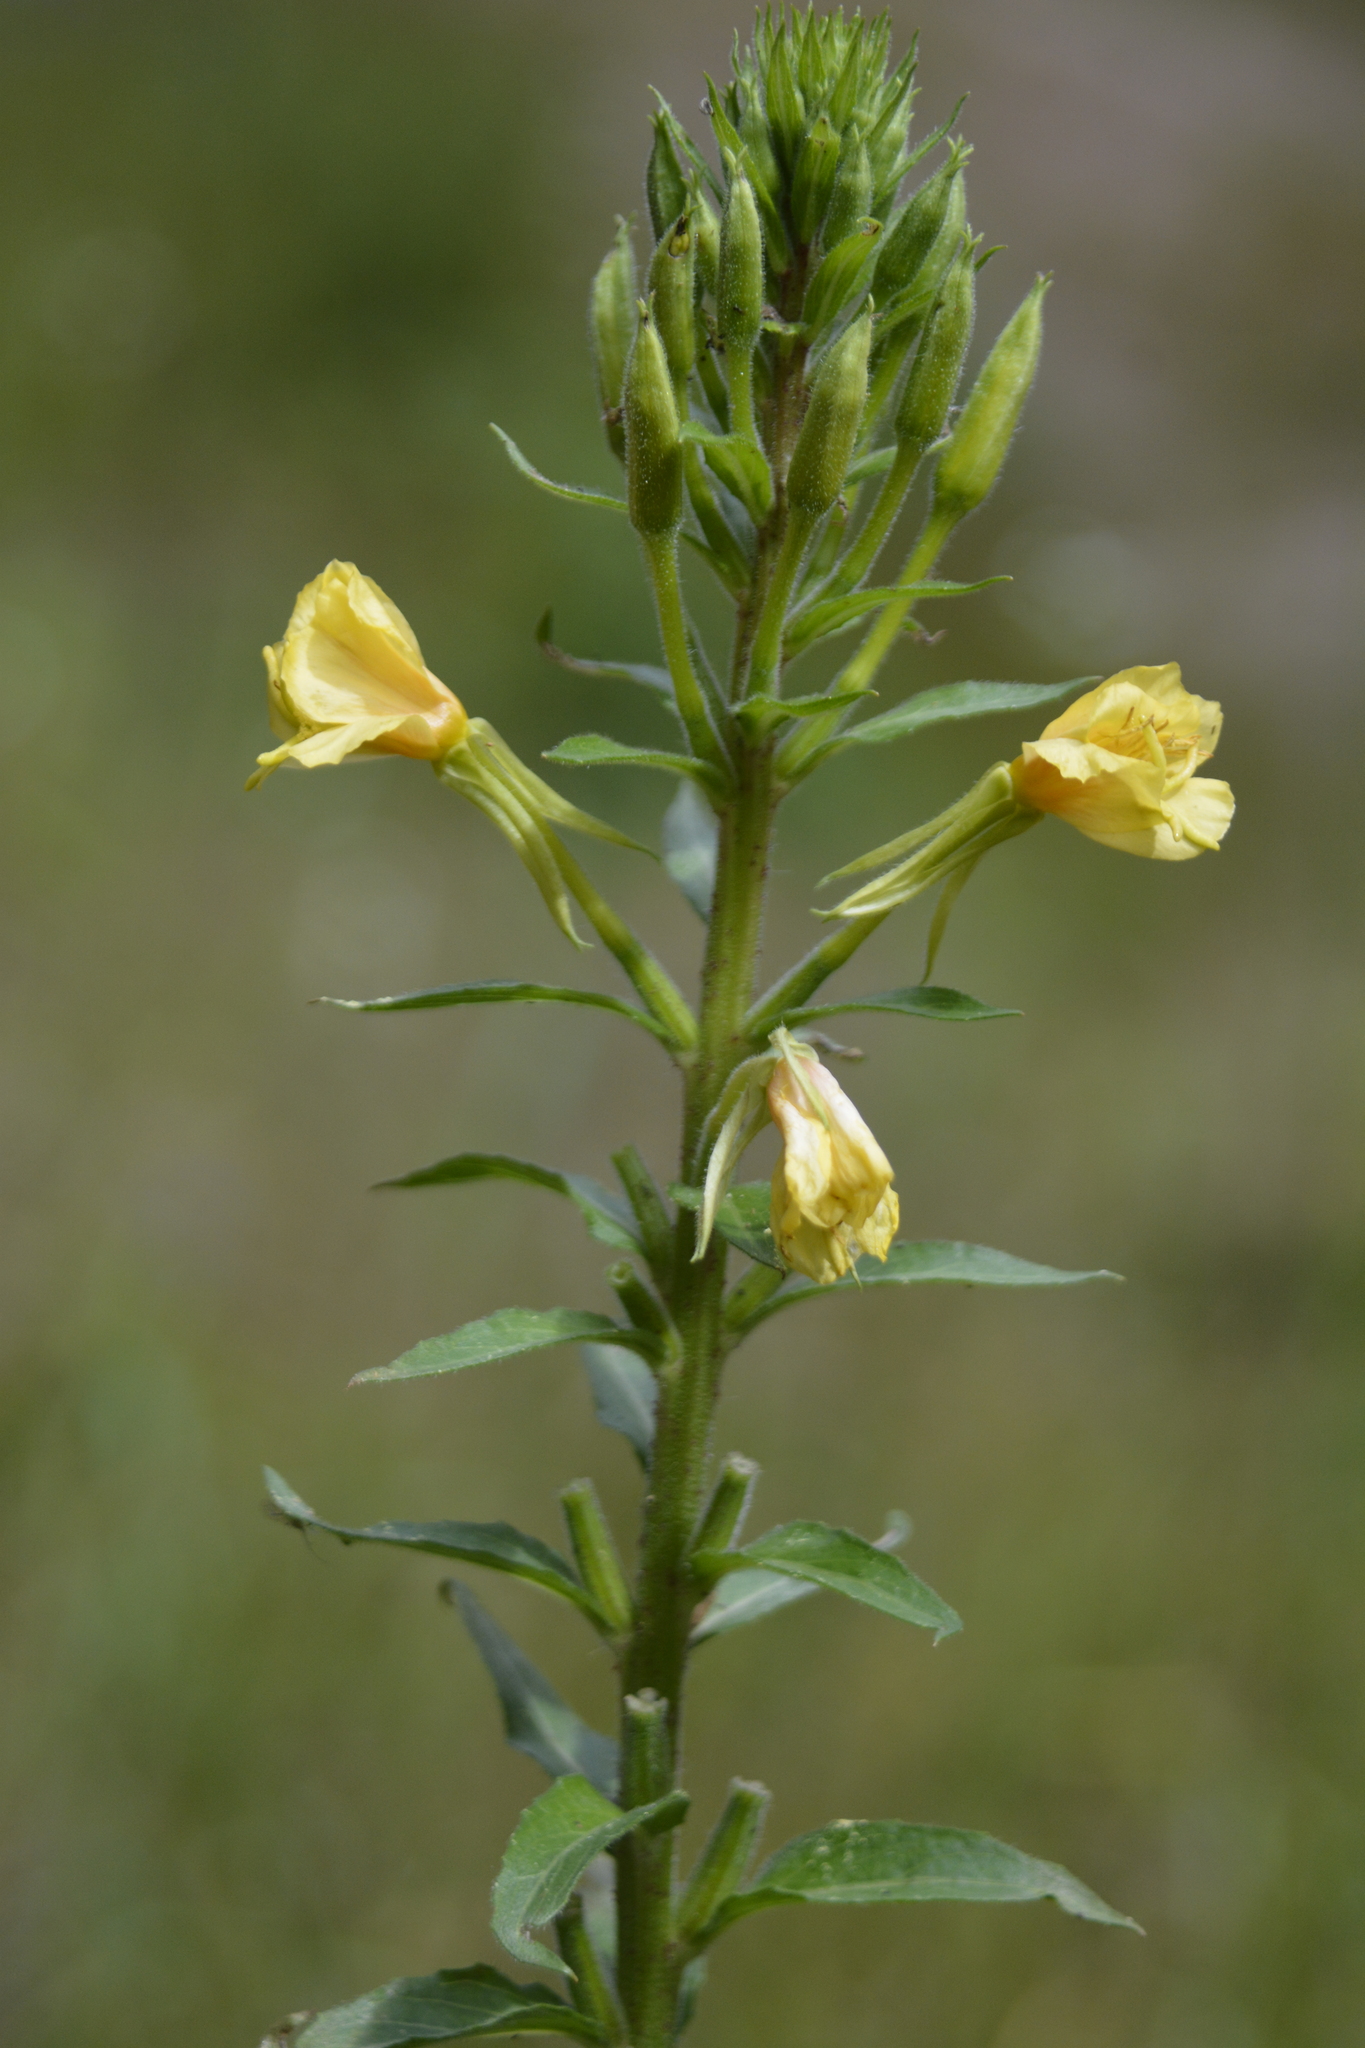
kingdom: Plantae
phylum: Tracheophyta
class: Magnoliopsida
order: Myrtales
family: Onagraceae
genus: Oenothera
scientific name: Oenothera rubricaulis
